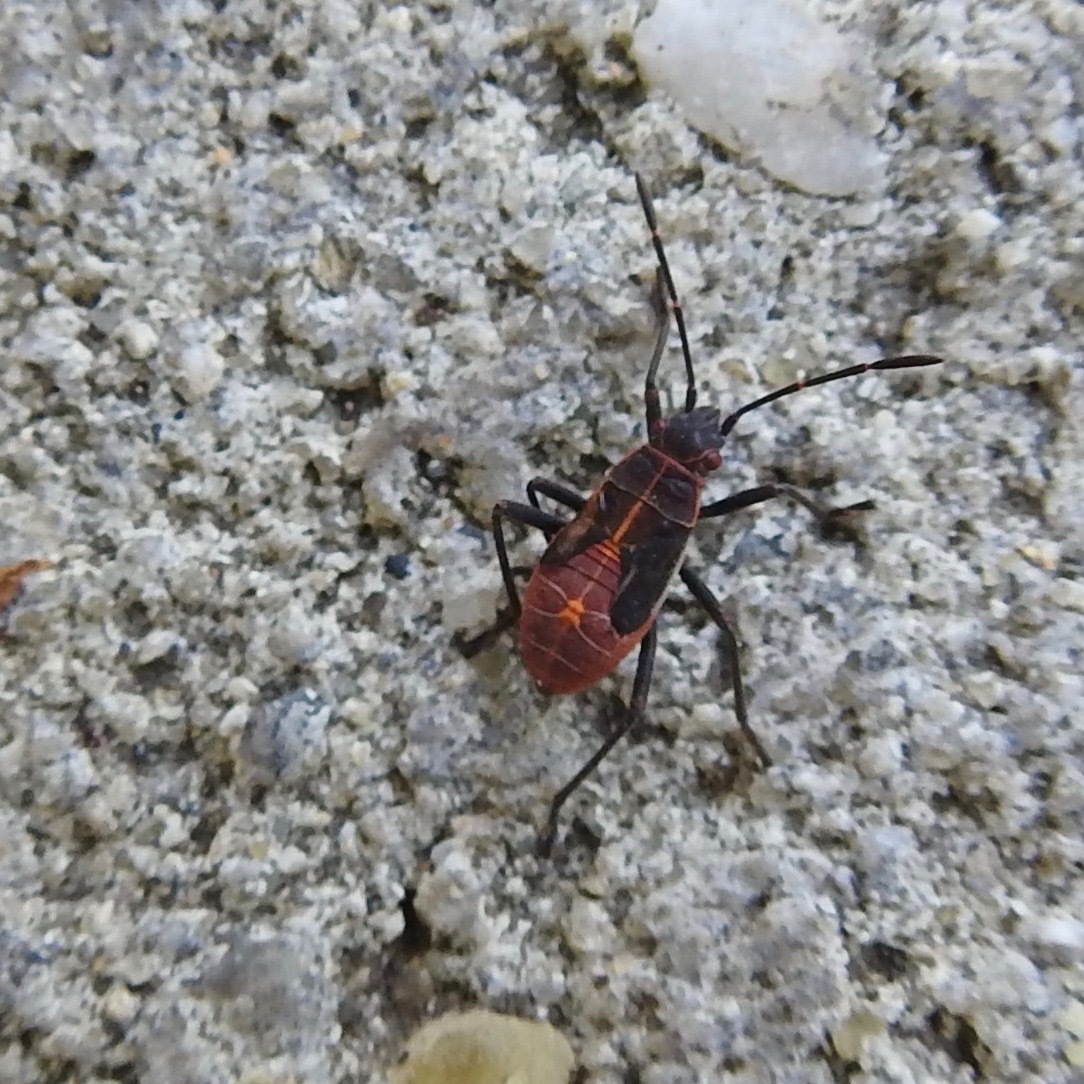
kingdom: Animalia
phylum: Arthropoda
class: Insecta
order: Hemiptera
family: Rhopalidae
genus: Boisea
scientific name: Boisea rubrolineata
